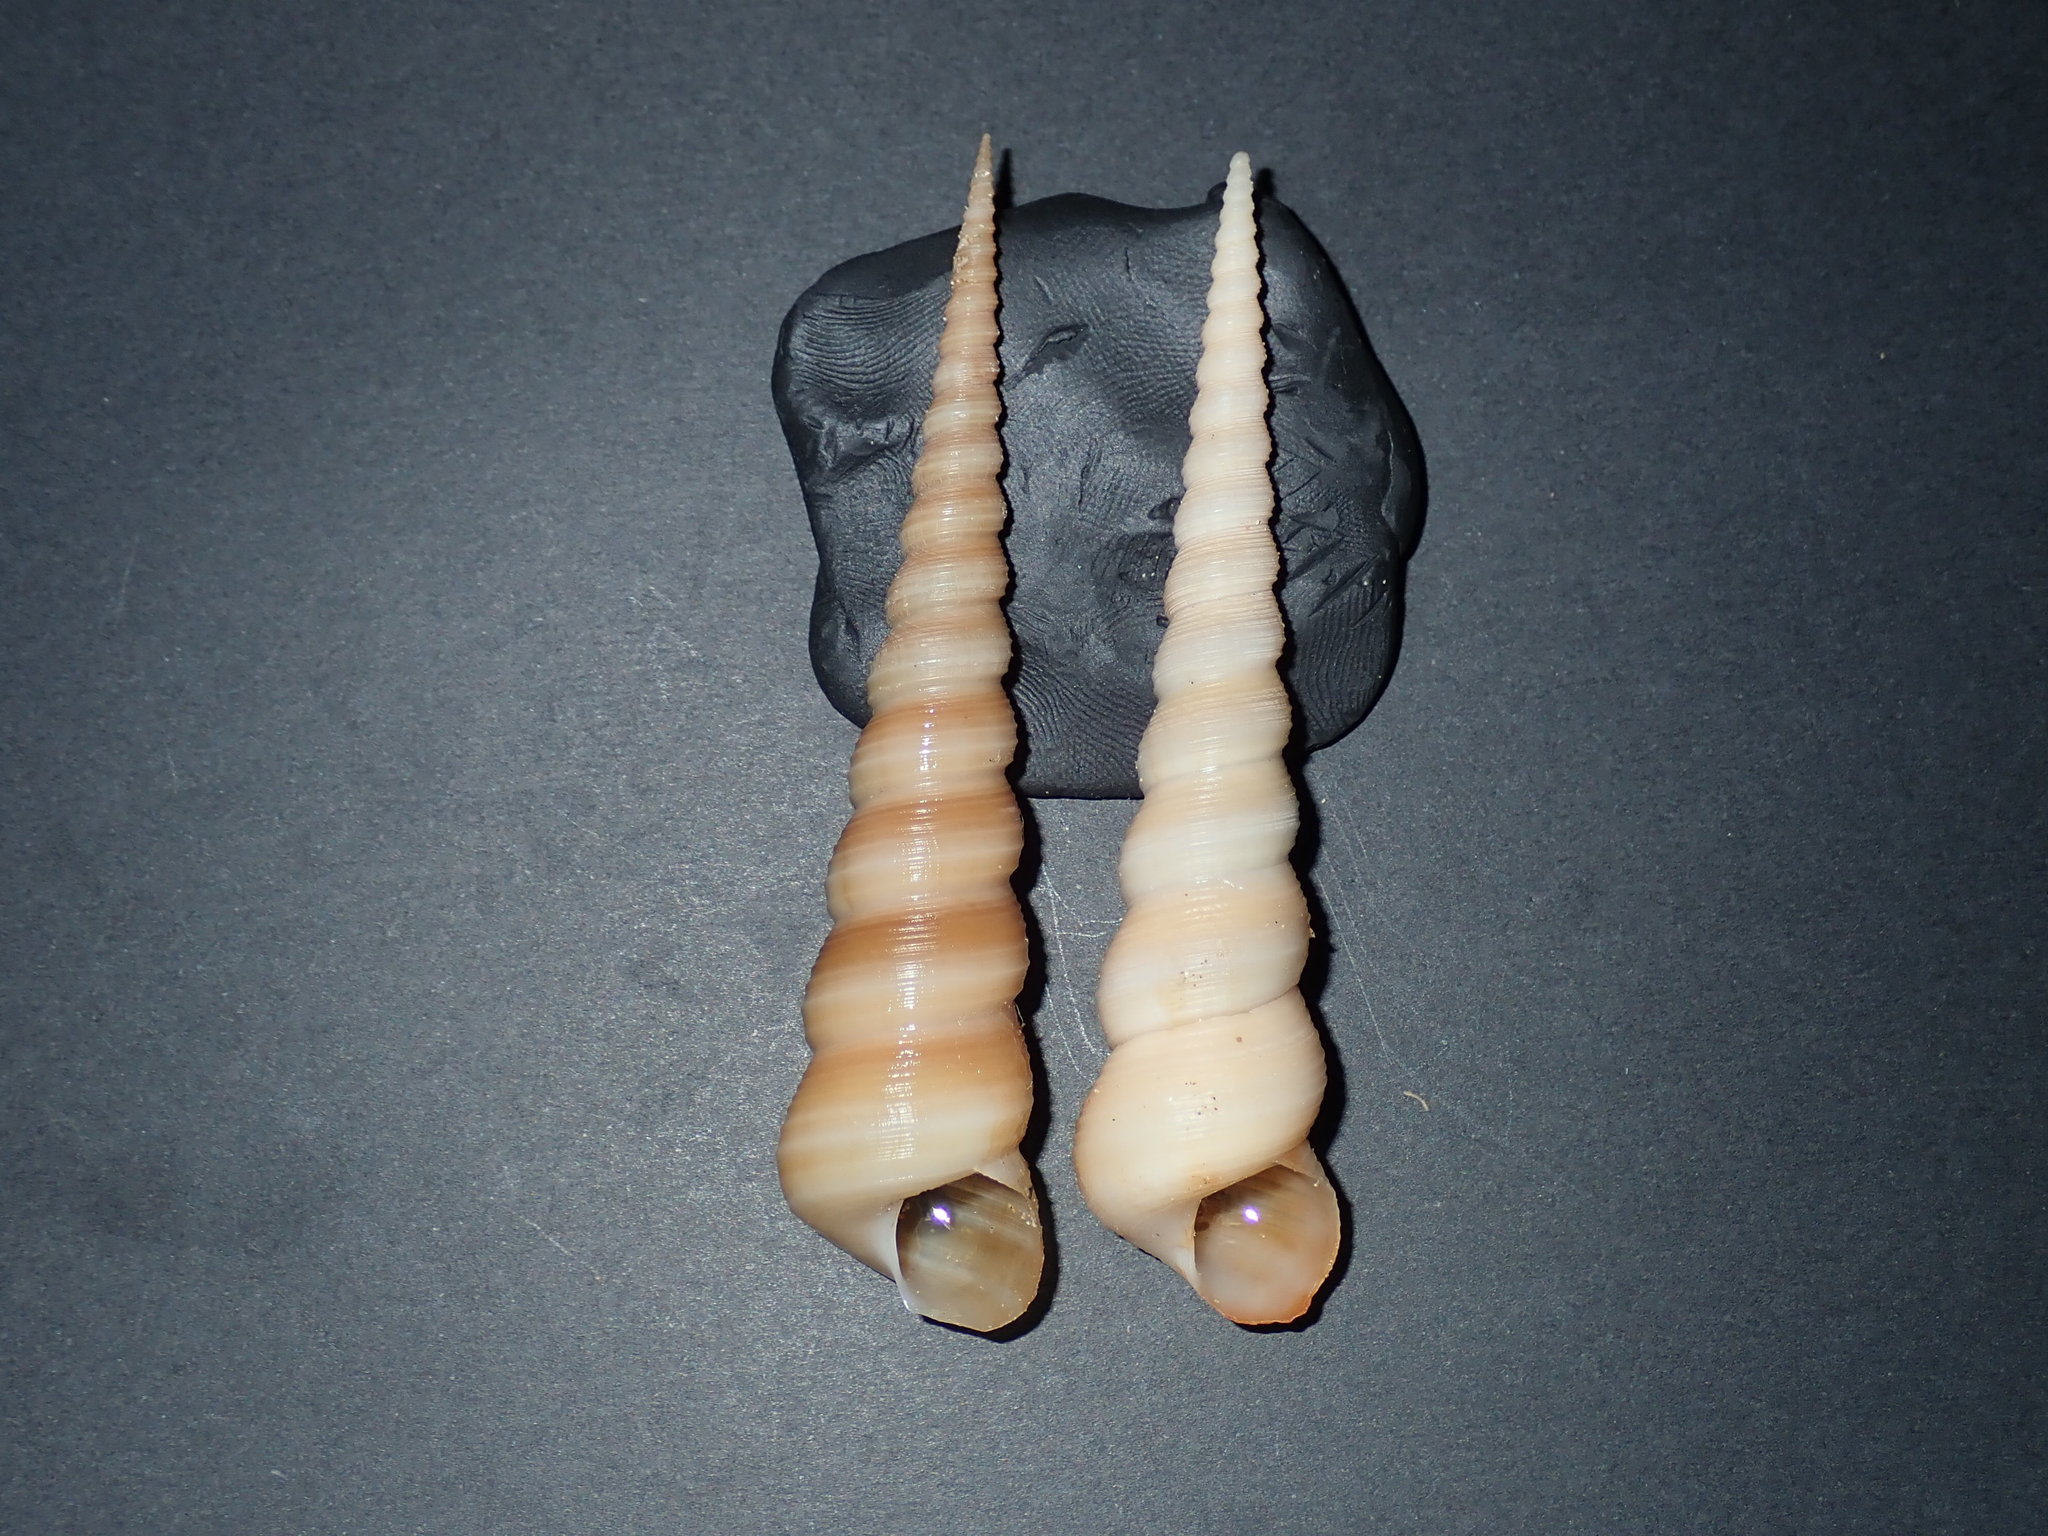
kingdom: Animalia
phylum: Mollusca
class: Gastropoda
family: Turritellidae
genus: Turritella
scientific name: Turritella terebra
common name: Auger screw shell
